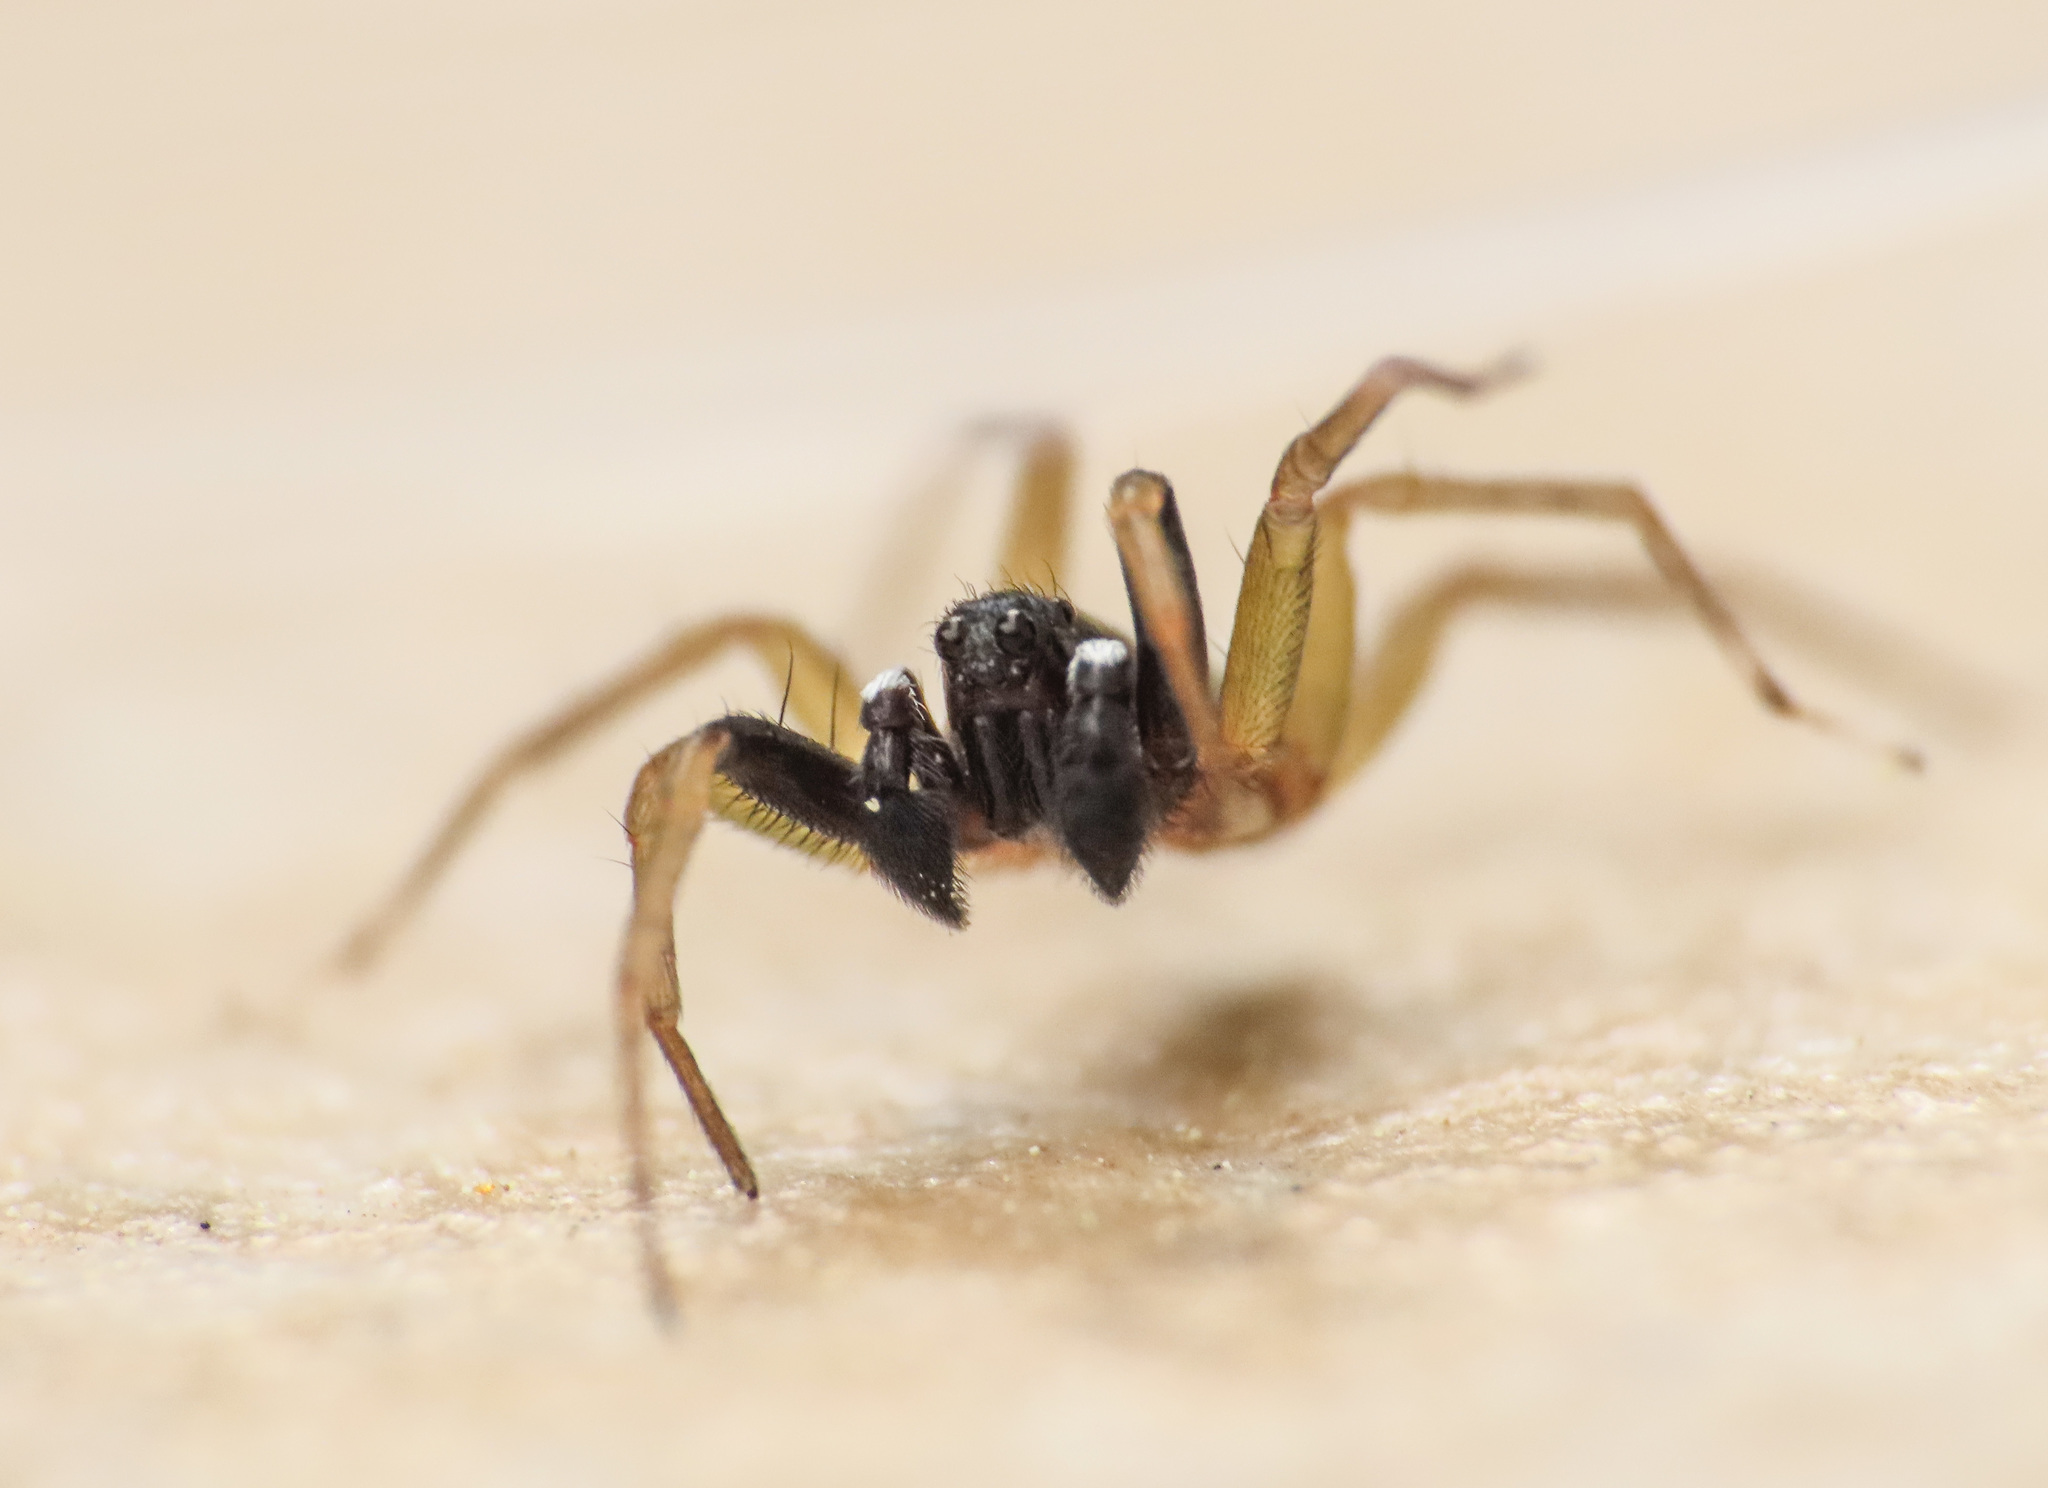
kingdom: Animalia
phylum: Arthropoda
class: Arachnida
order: Araneae
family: Lycosidae
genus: Aulonia
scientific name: Aulonia albimana
